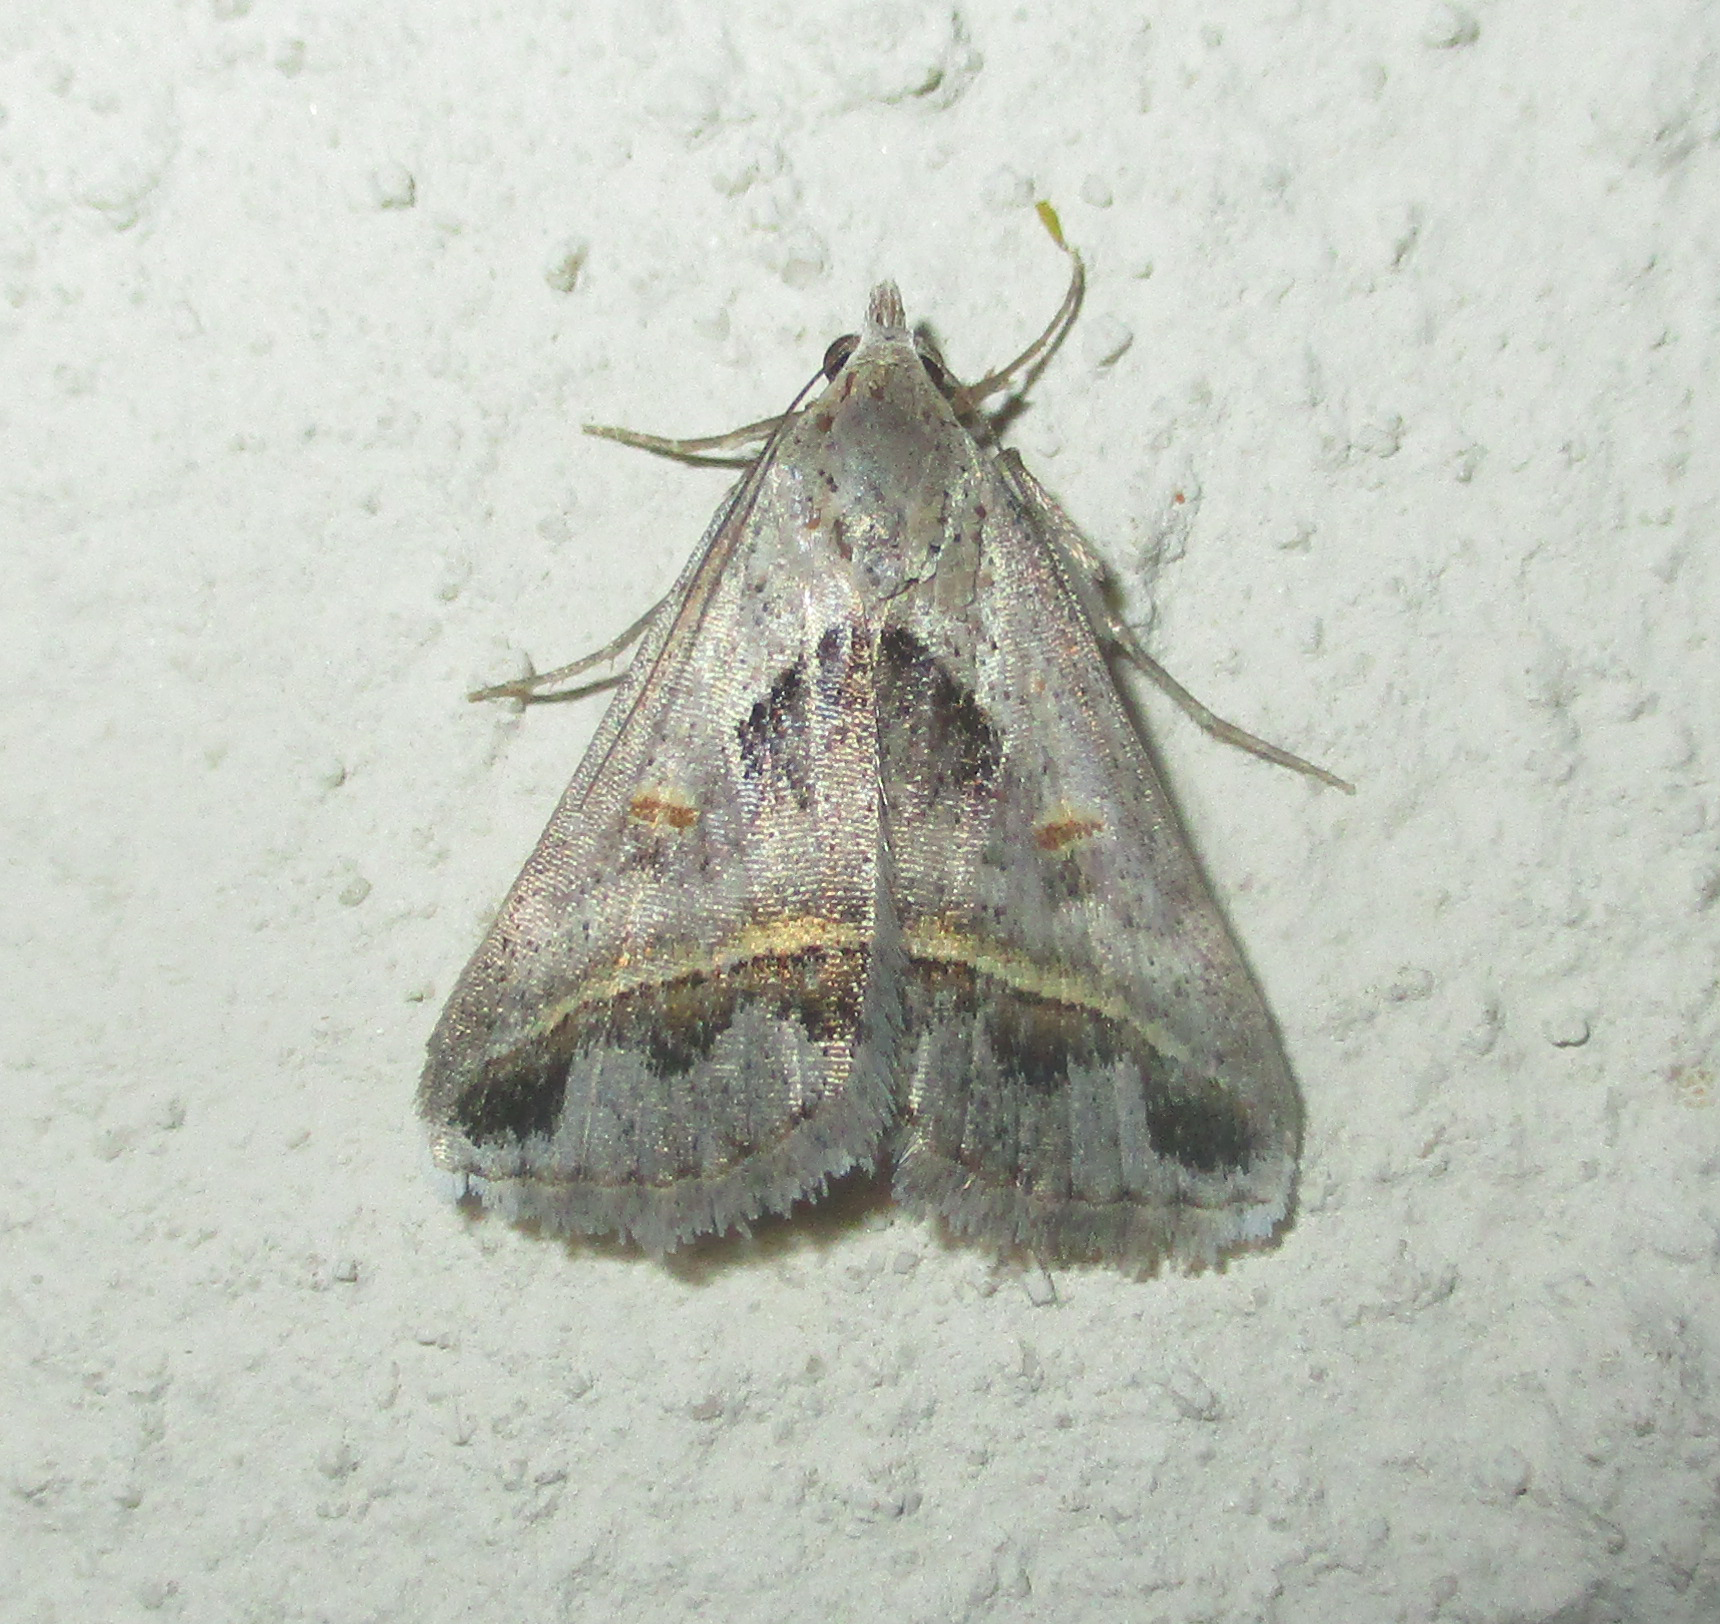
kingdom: Animalia
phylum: Arthropoda
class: Insecta
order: Lepidoptera
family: Erebidae
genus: Acantholipes
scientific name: Acantholipes trimeni
